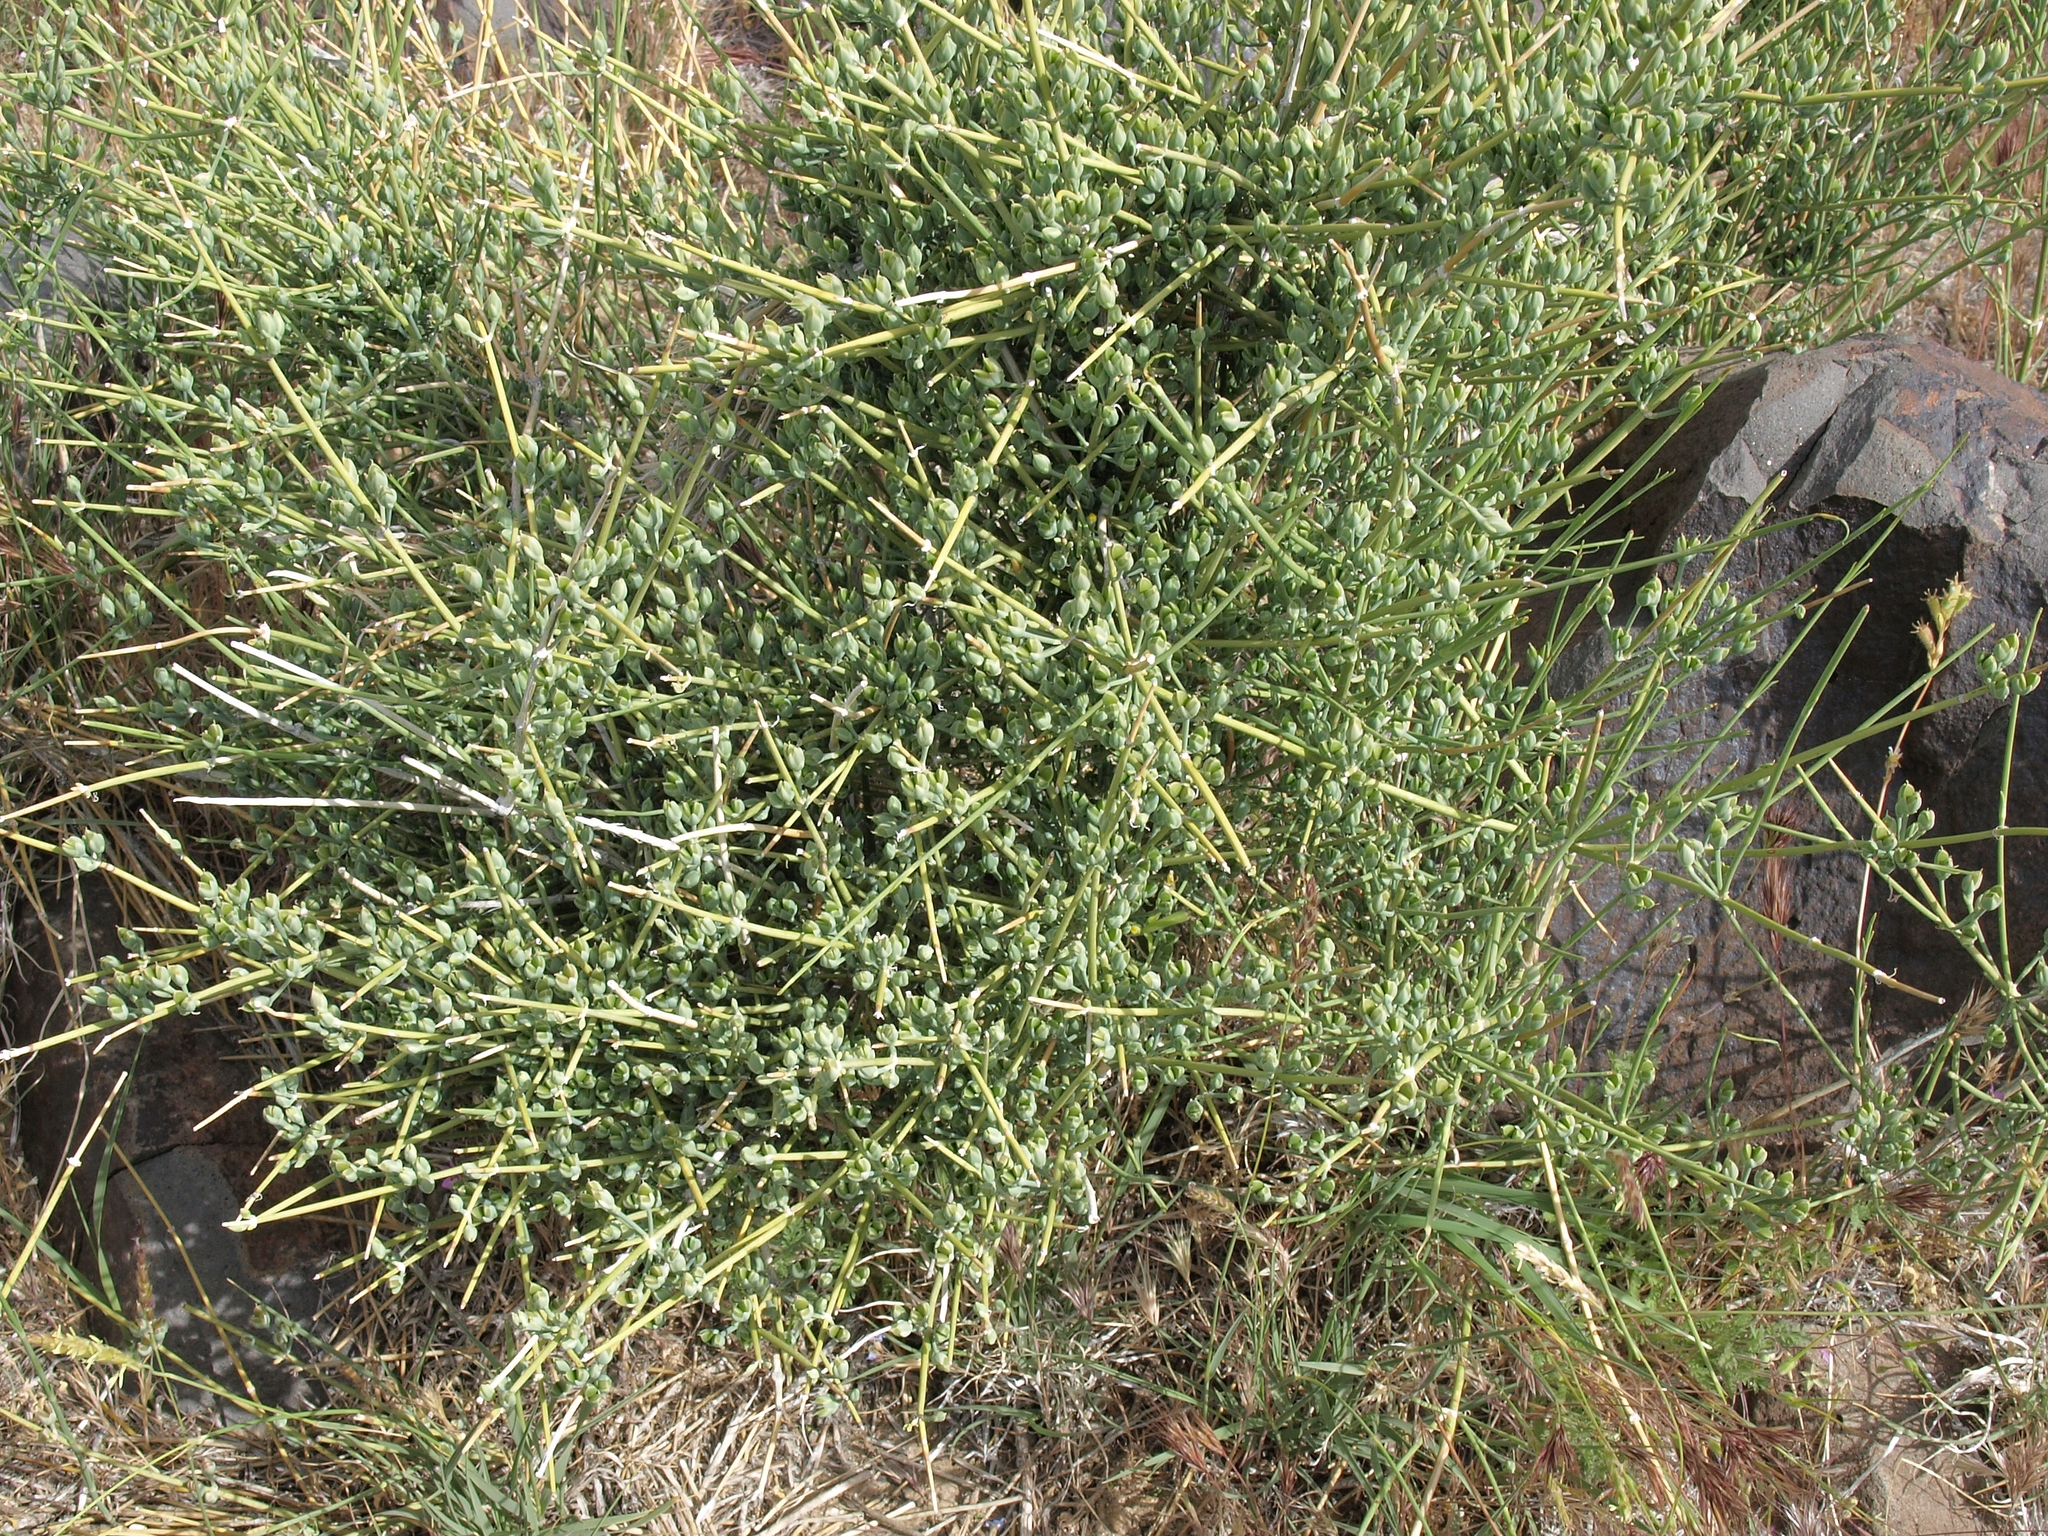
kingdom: Plantae
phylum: Tracheophyta
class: Gnetopsida
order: Ephedrales
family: Ephedraceae
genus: Ephedra
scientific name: Ephedra nevadensis
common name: Gray ephedra
